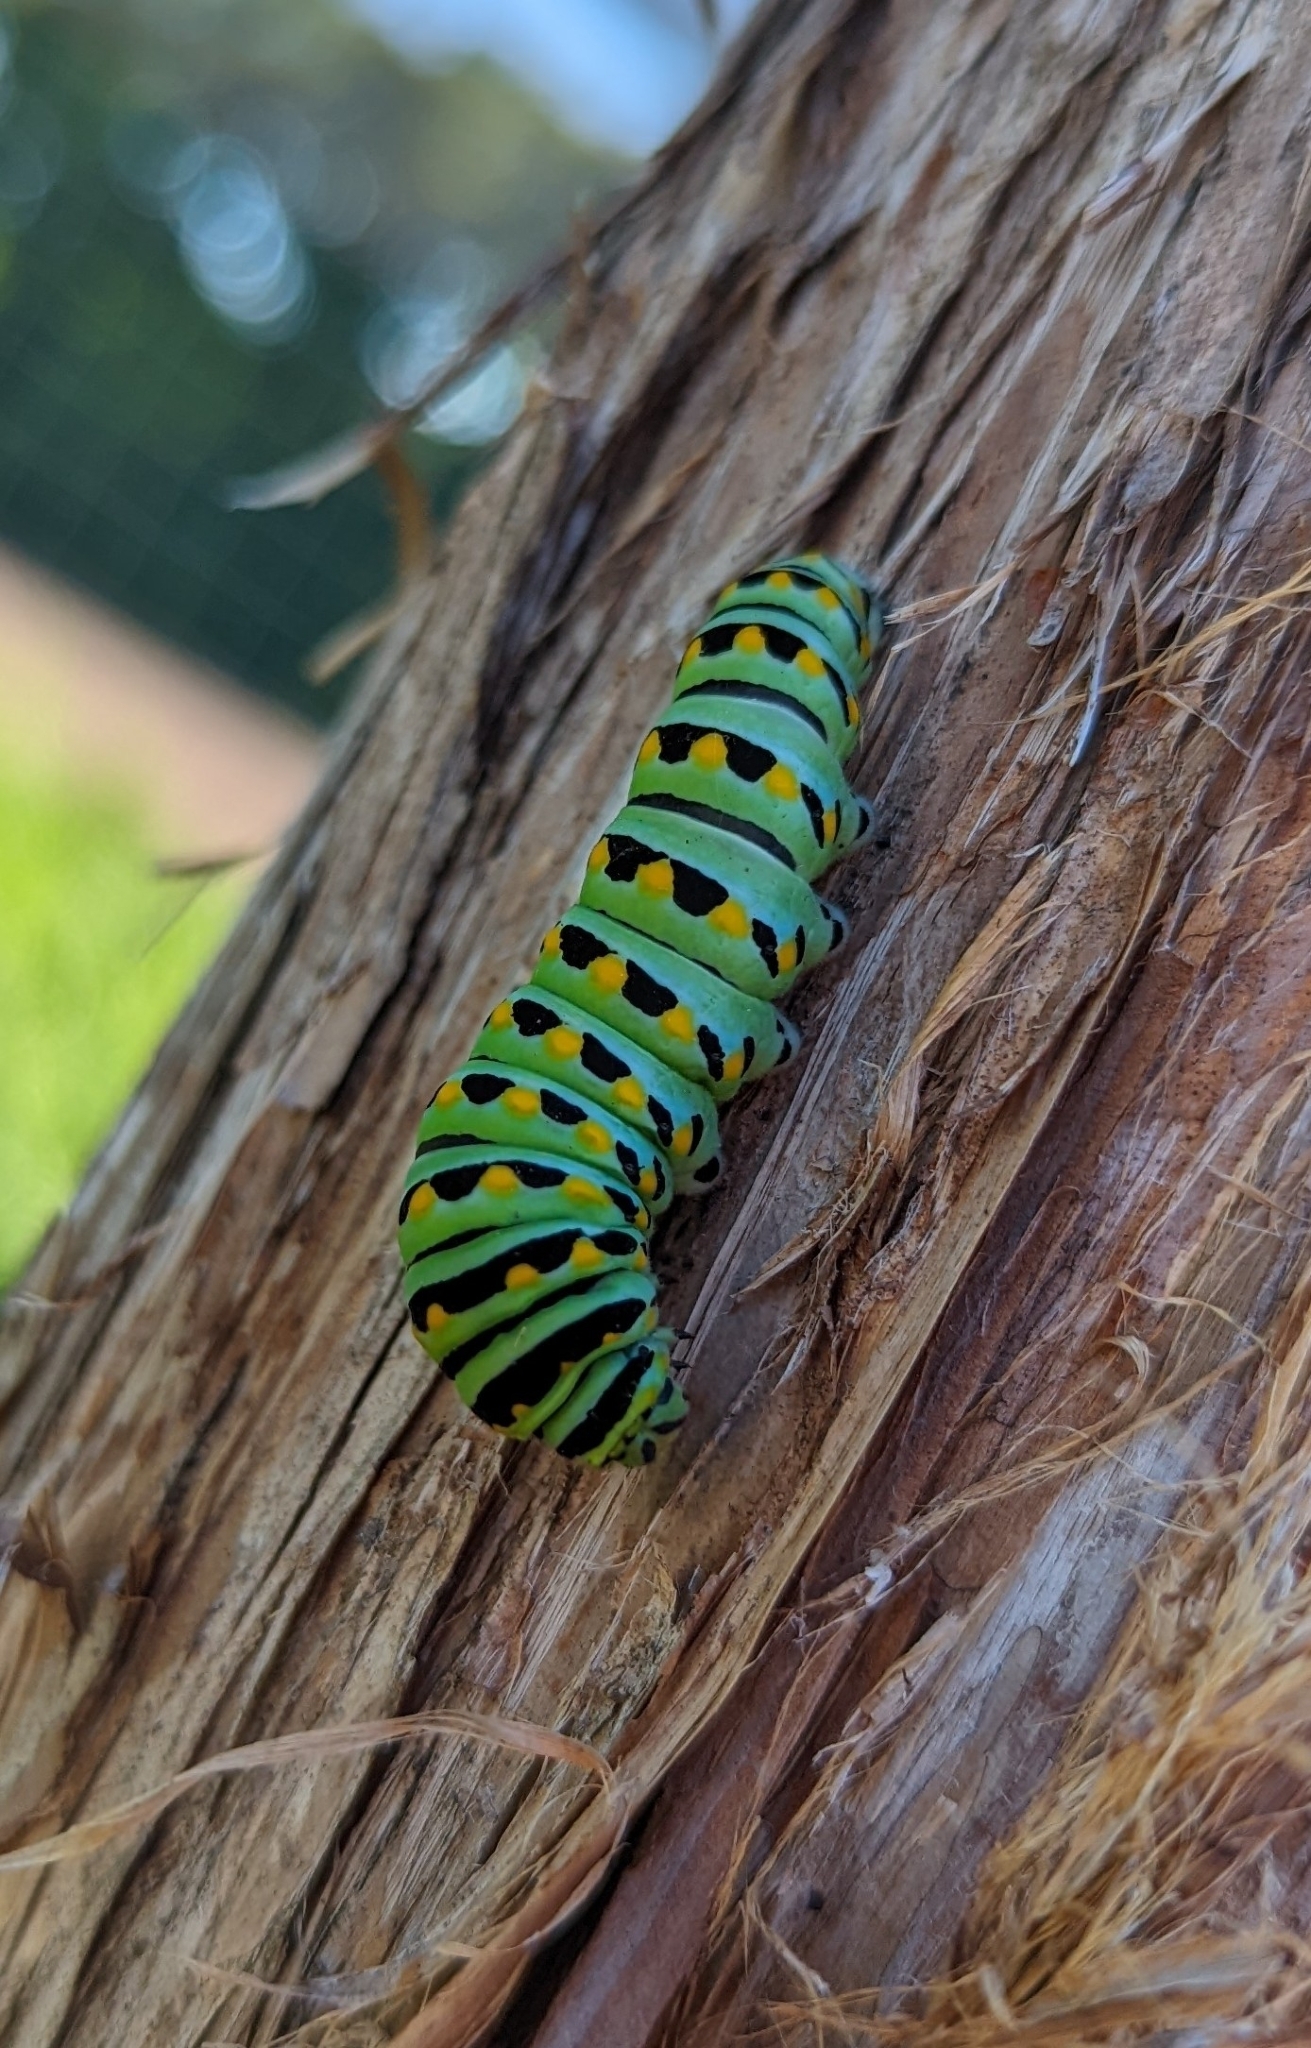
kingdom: Animalia
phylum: Arthropoda
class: Insecta
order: Lepidoptera
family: Papilionidae
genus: Papilio
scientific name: Papilio polyxenes
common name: Black swallowtail
